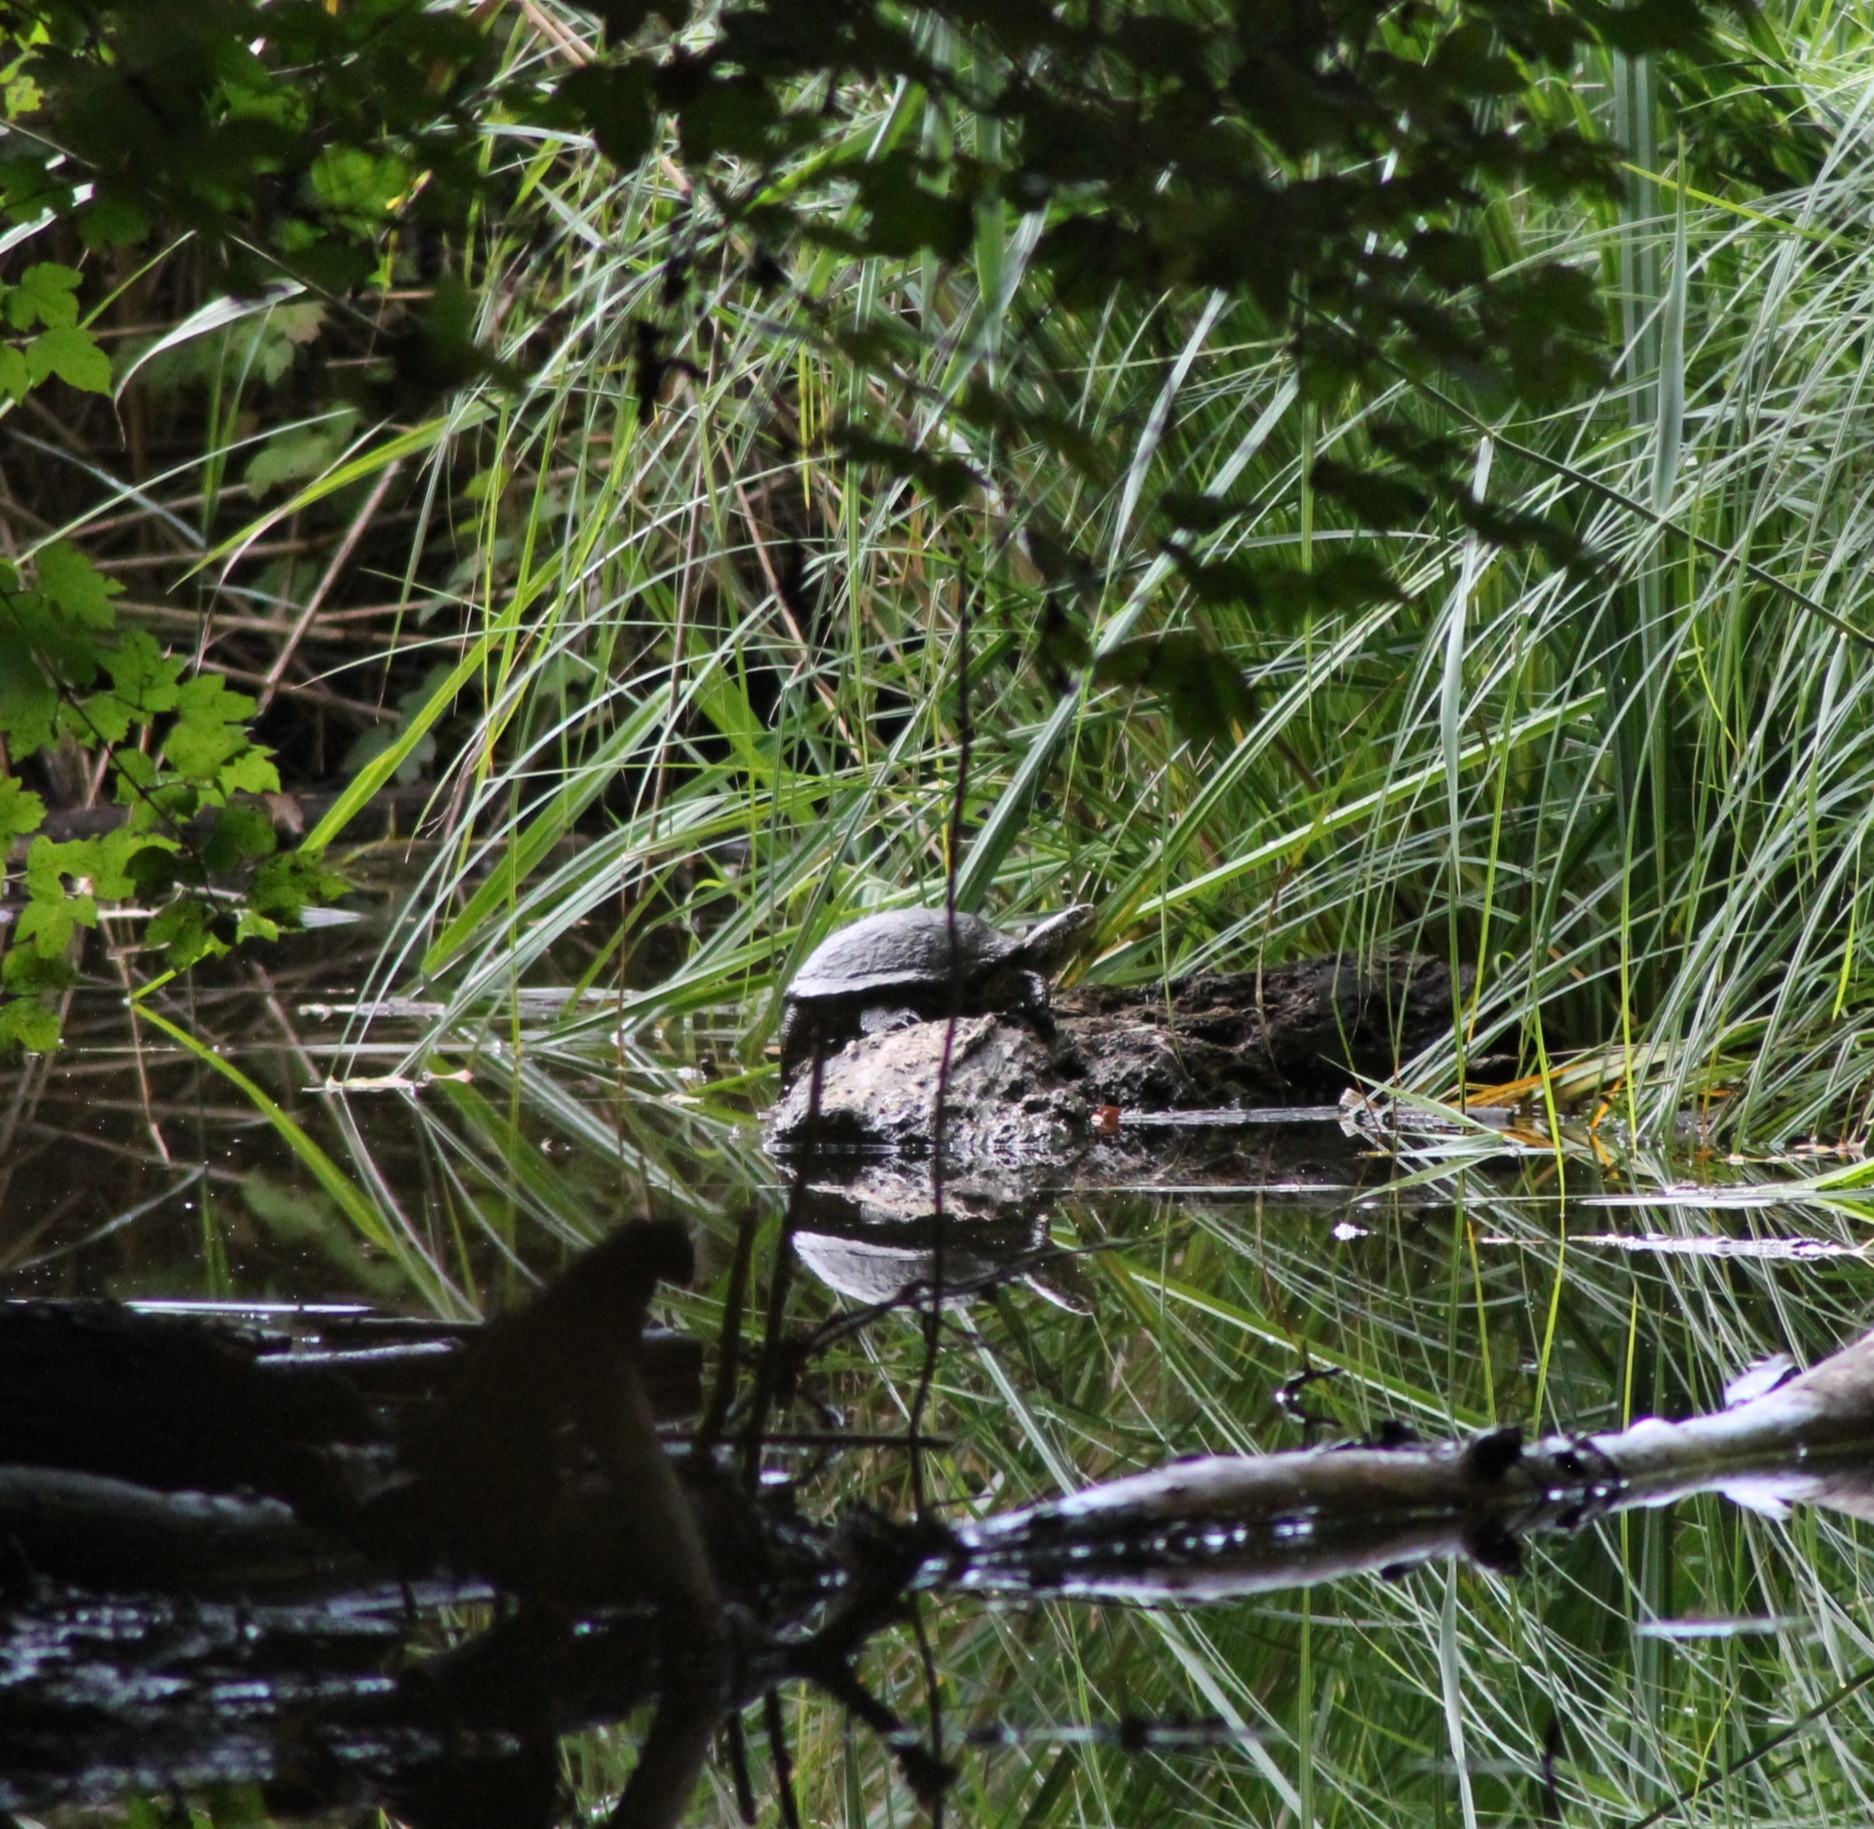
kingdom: Animalia
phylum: Chordata
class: Testudines
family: Emydidae
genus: Emys
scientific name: Emys orbicularis
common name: European pond turtle
